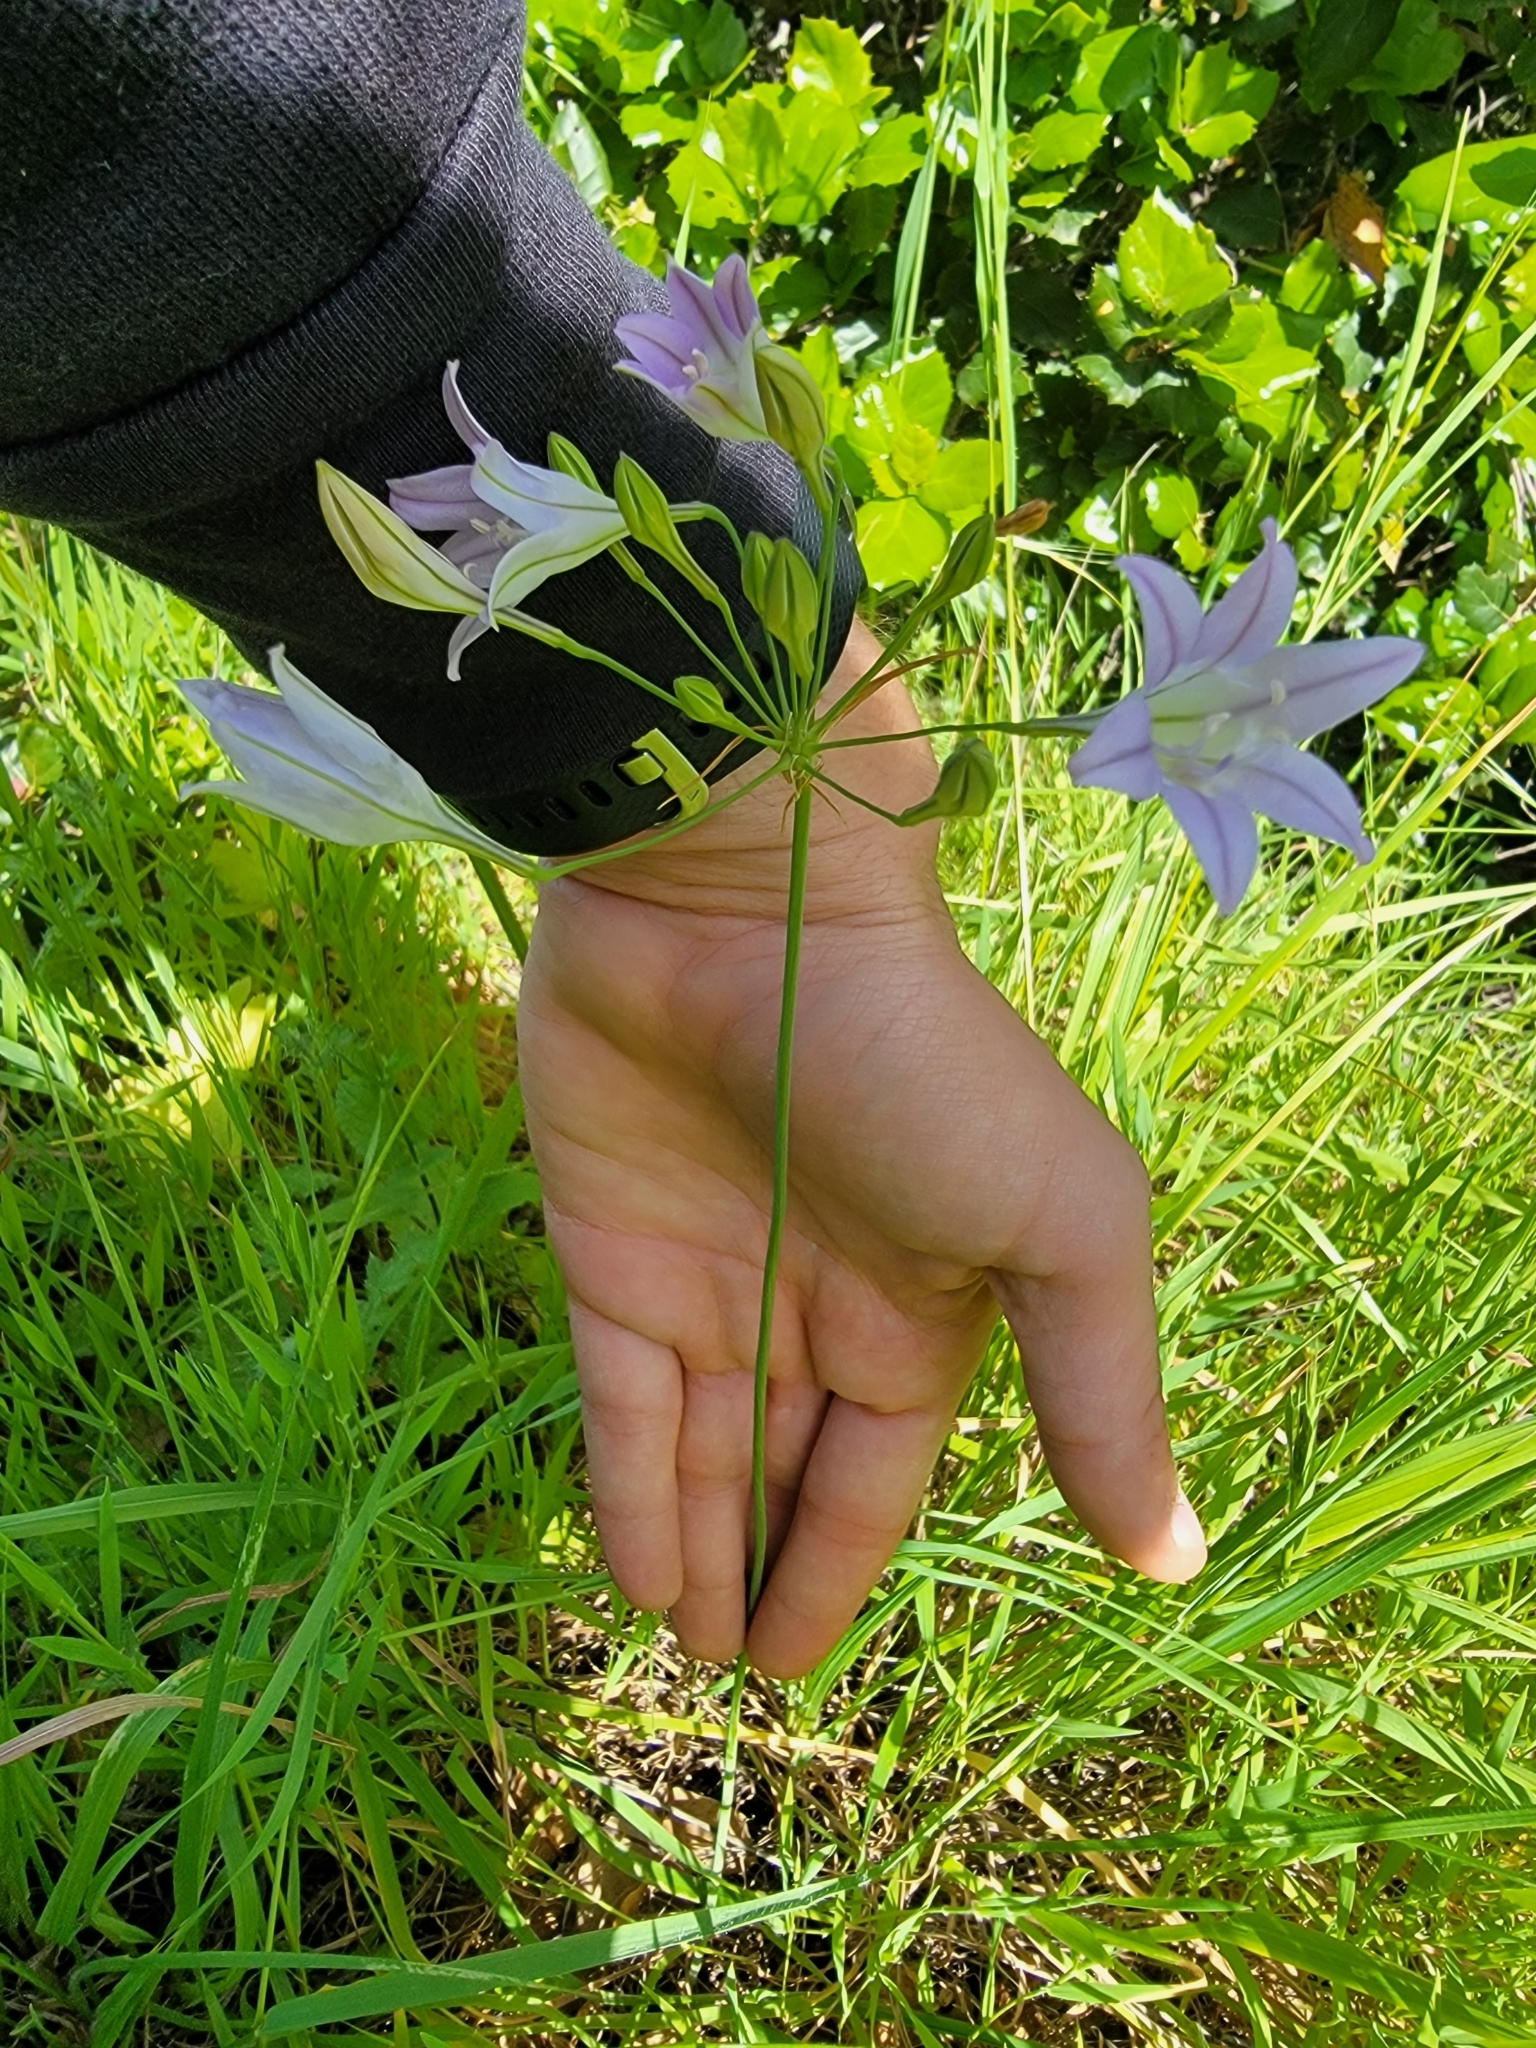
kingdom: Plantae
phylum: Tracheophyta
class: Liliopsida
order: Asparagales
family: Asparagaceae
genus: Triteleia
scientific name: Triteleia laxa
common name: Triplet-lily
